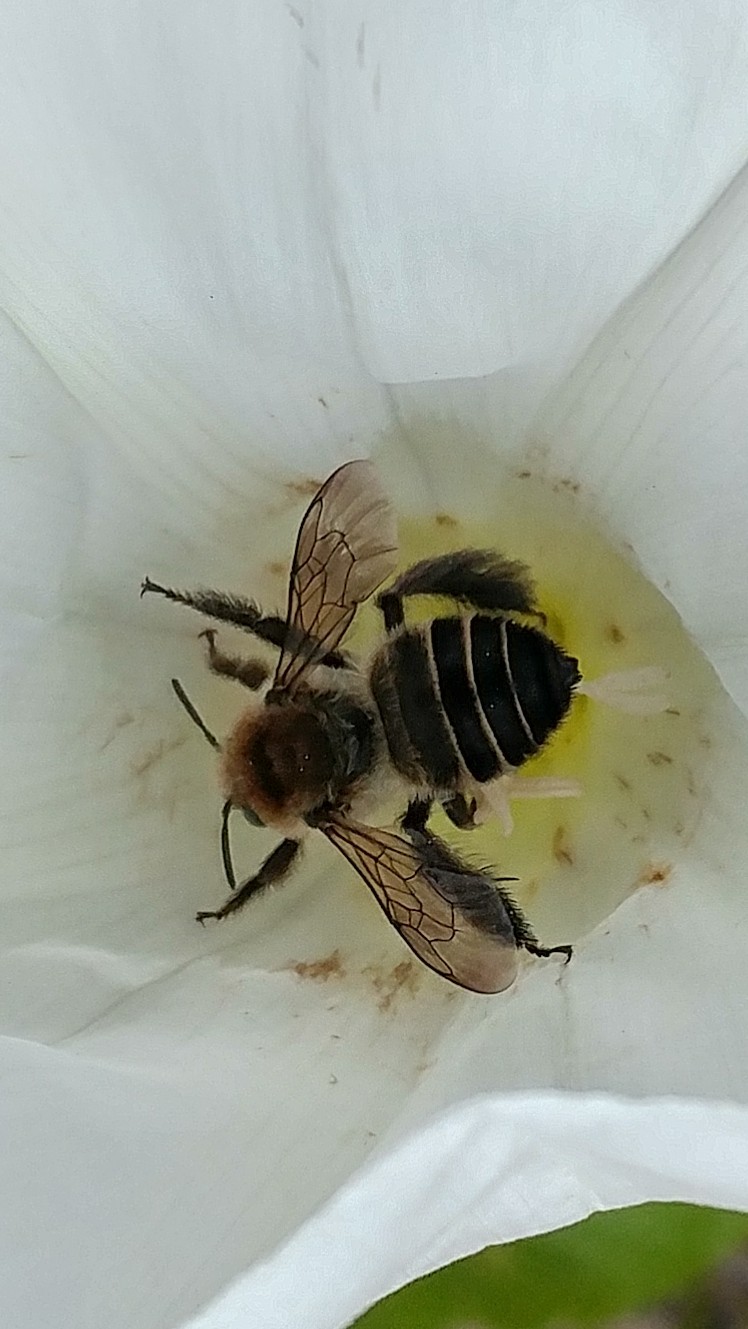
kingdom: Animalia
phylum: Arthropoda
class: Insecta
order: Hymenoptera
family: Apidae
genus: Diadasia
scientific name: Diadasia bituberculata
